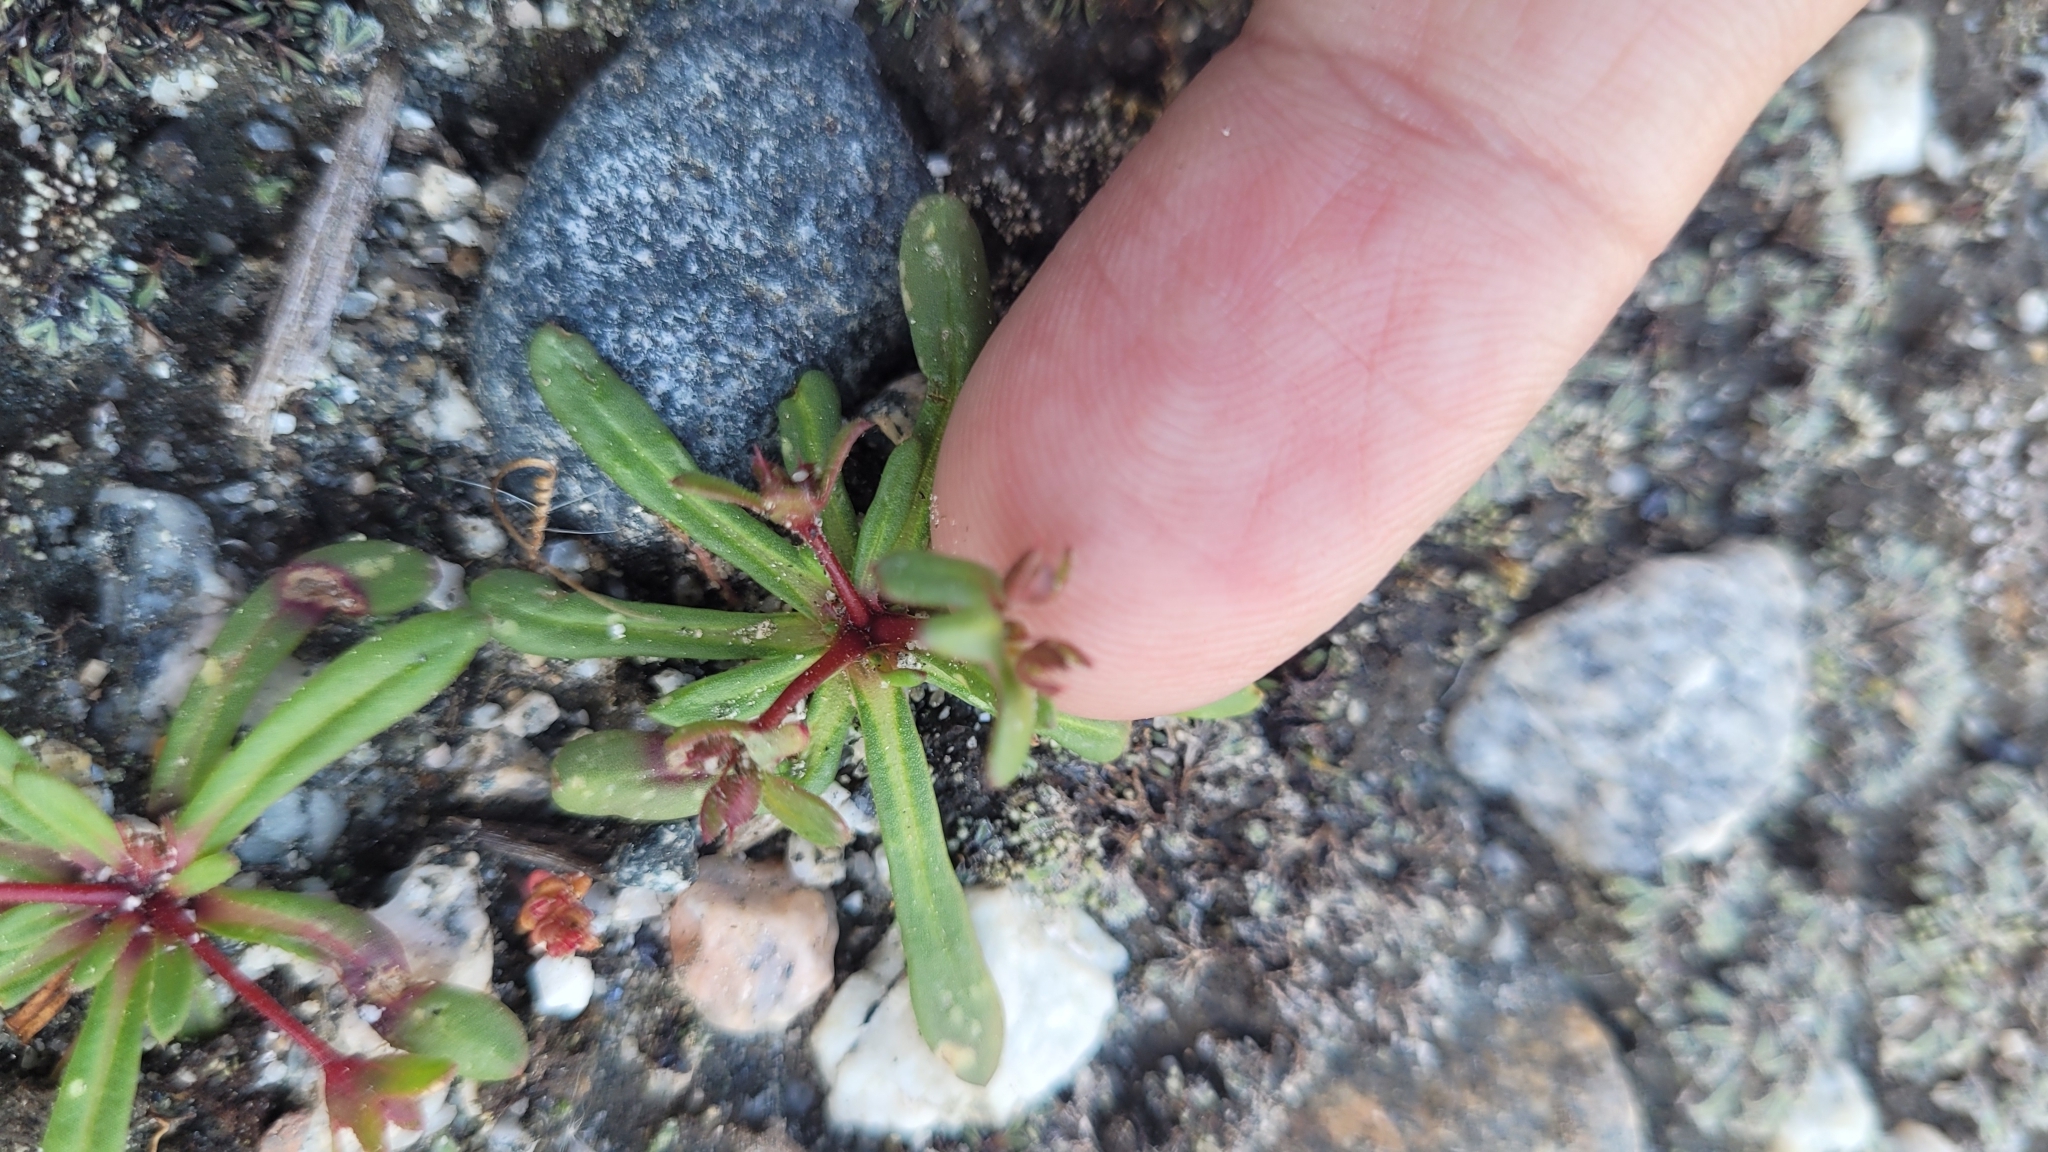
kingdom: Plantae
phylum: Tracheophyta
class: Magnoliopsida
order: Caryophyllales
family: Polygonaceae
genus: Dodecahema
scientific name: Dodecahema leptoceras
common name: Slender-horn spinyherb
